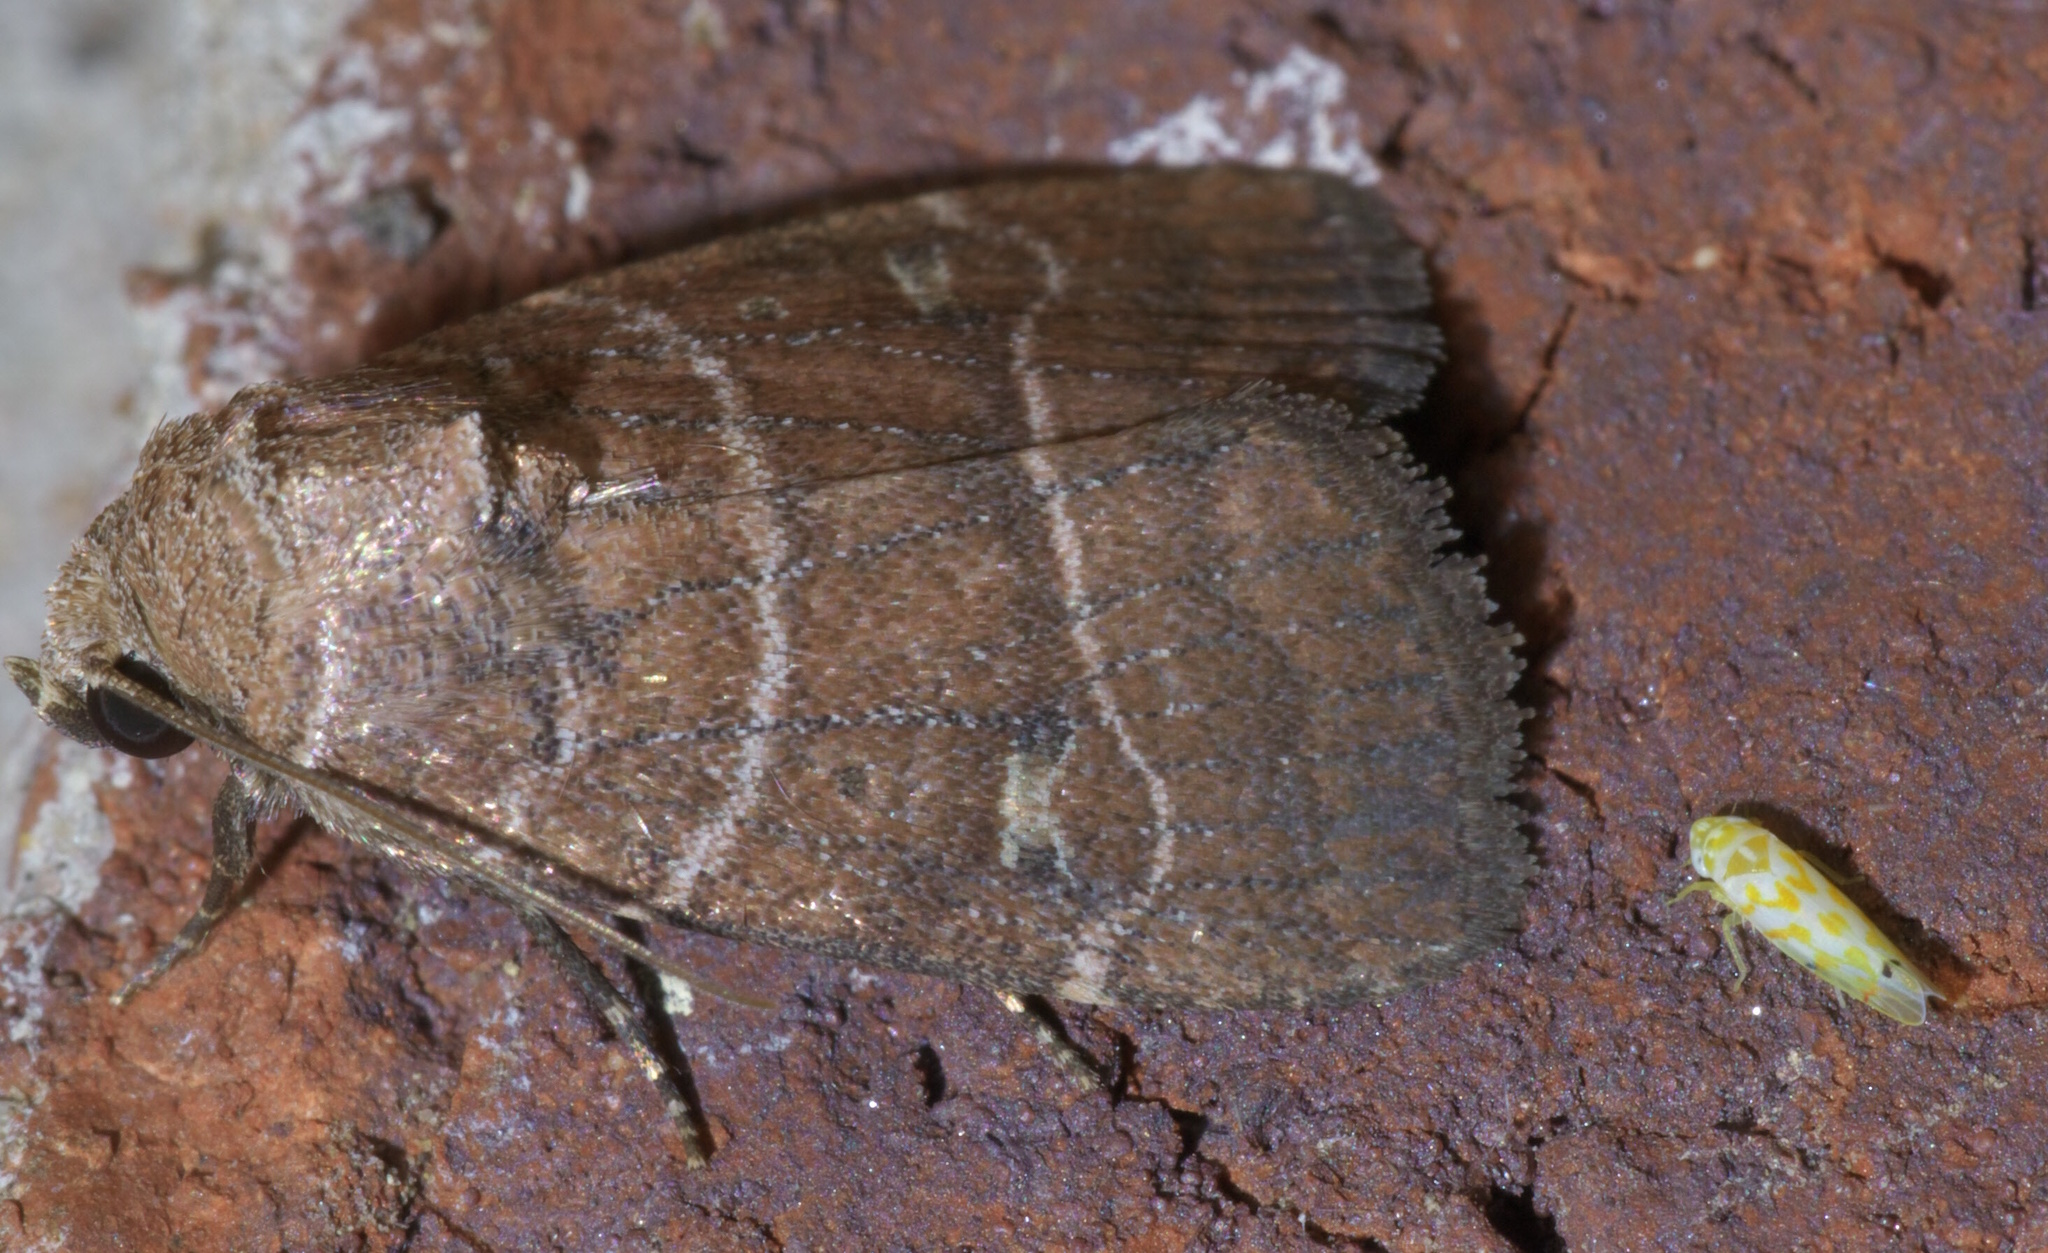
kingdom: Animalia
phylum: Arthropoda
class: Insecta
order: Lepidoptera
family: Noctuidae
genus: Elaphria
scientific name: Elaphria grata
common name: Grateful midget moth
